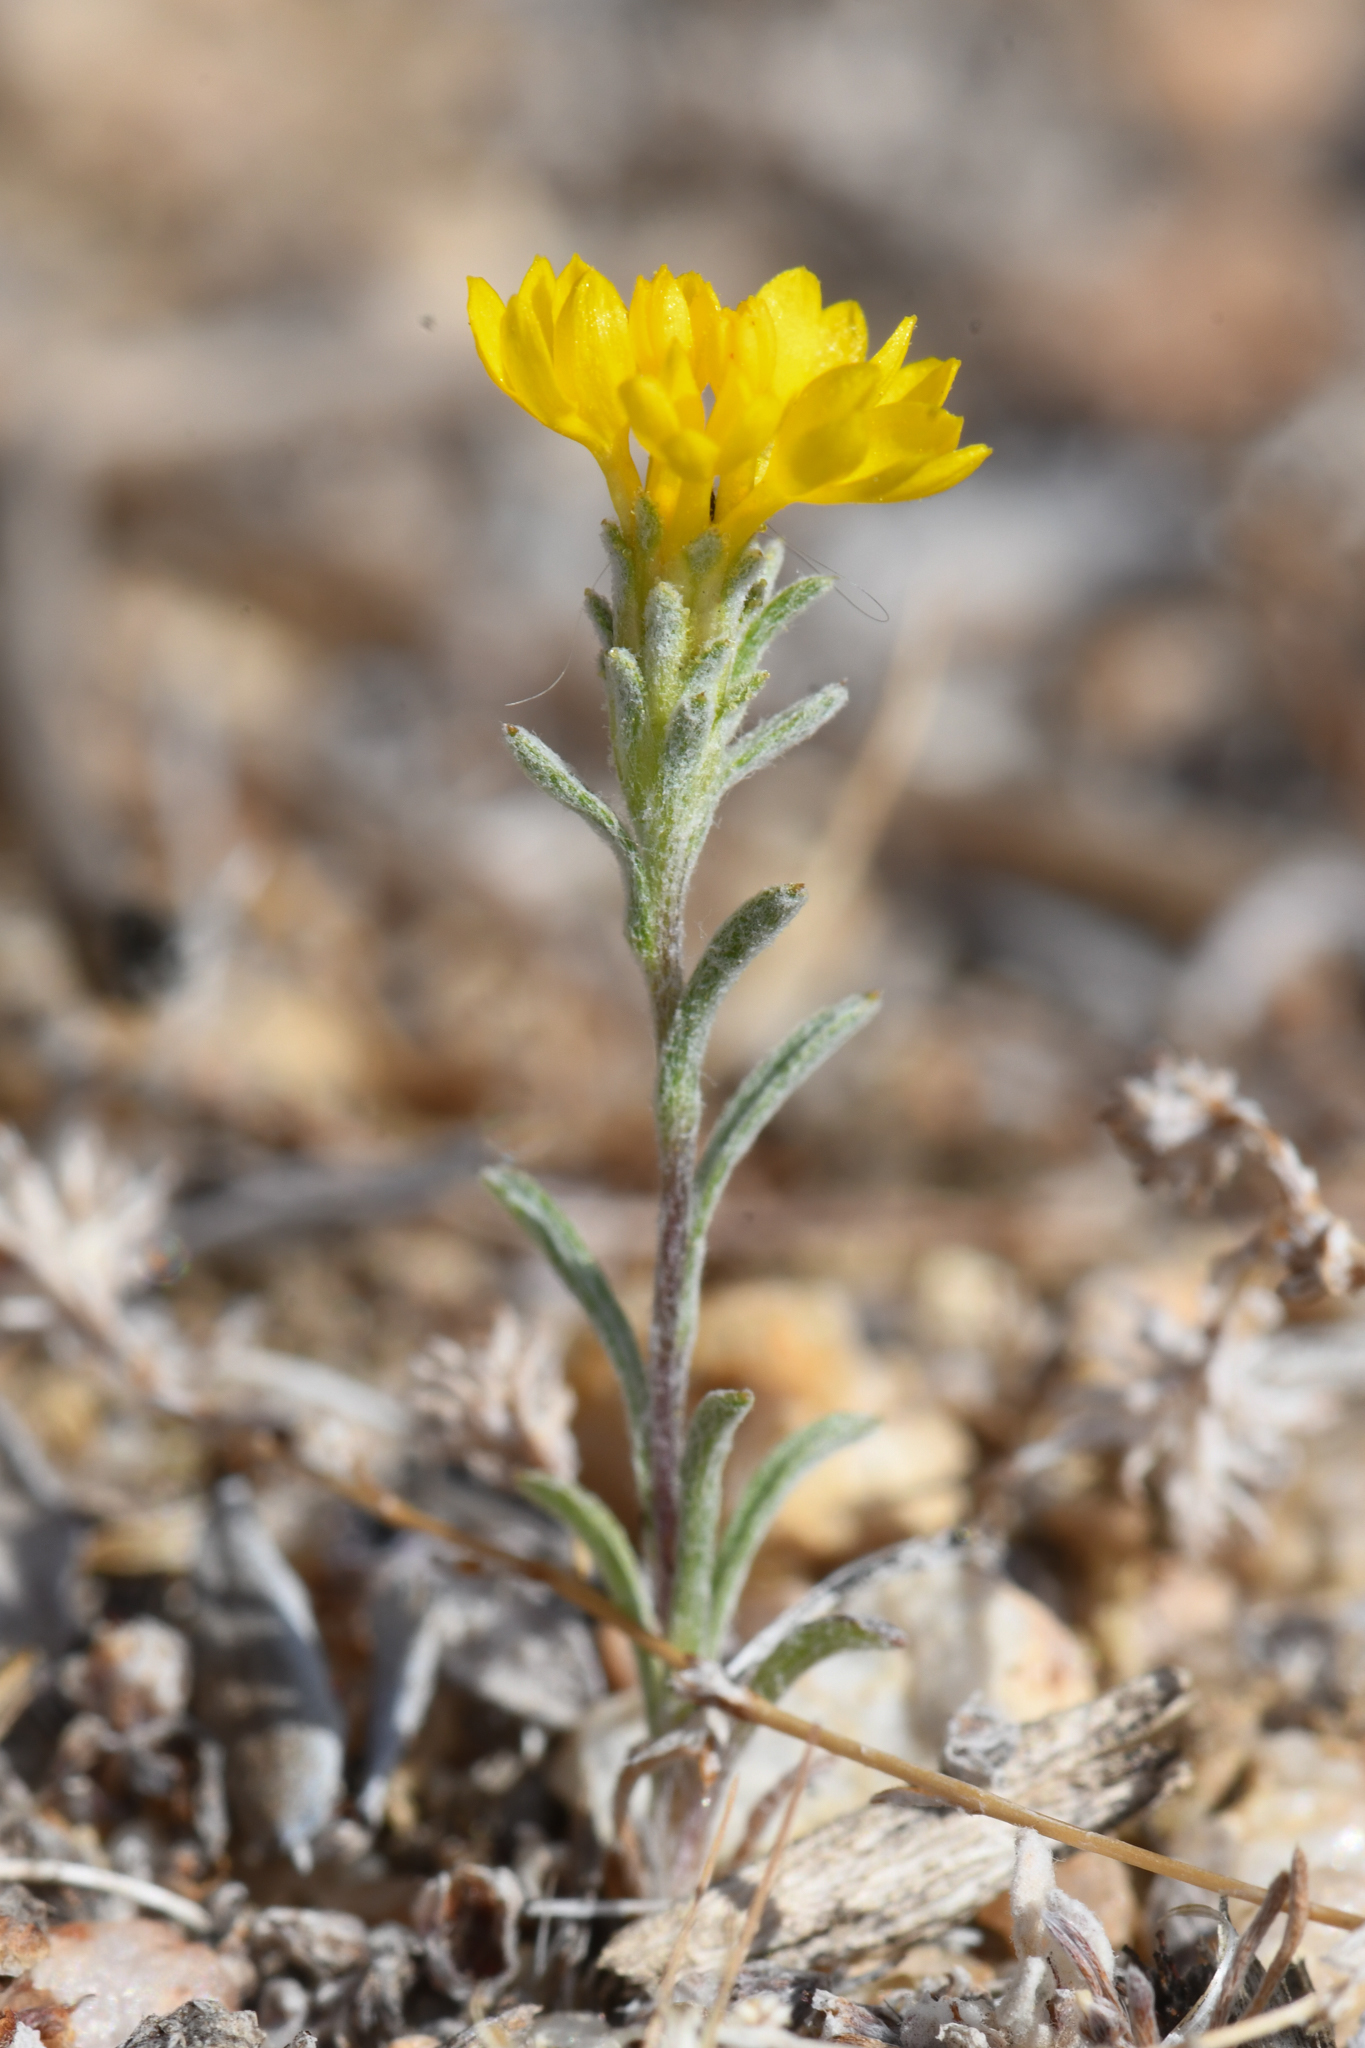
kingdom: Plantae
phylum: Tracheophyta
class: Magnoliopsida
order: Asterales
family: Asteraceae
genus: Lessingia
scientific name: Lessingia glandulifera
